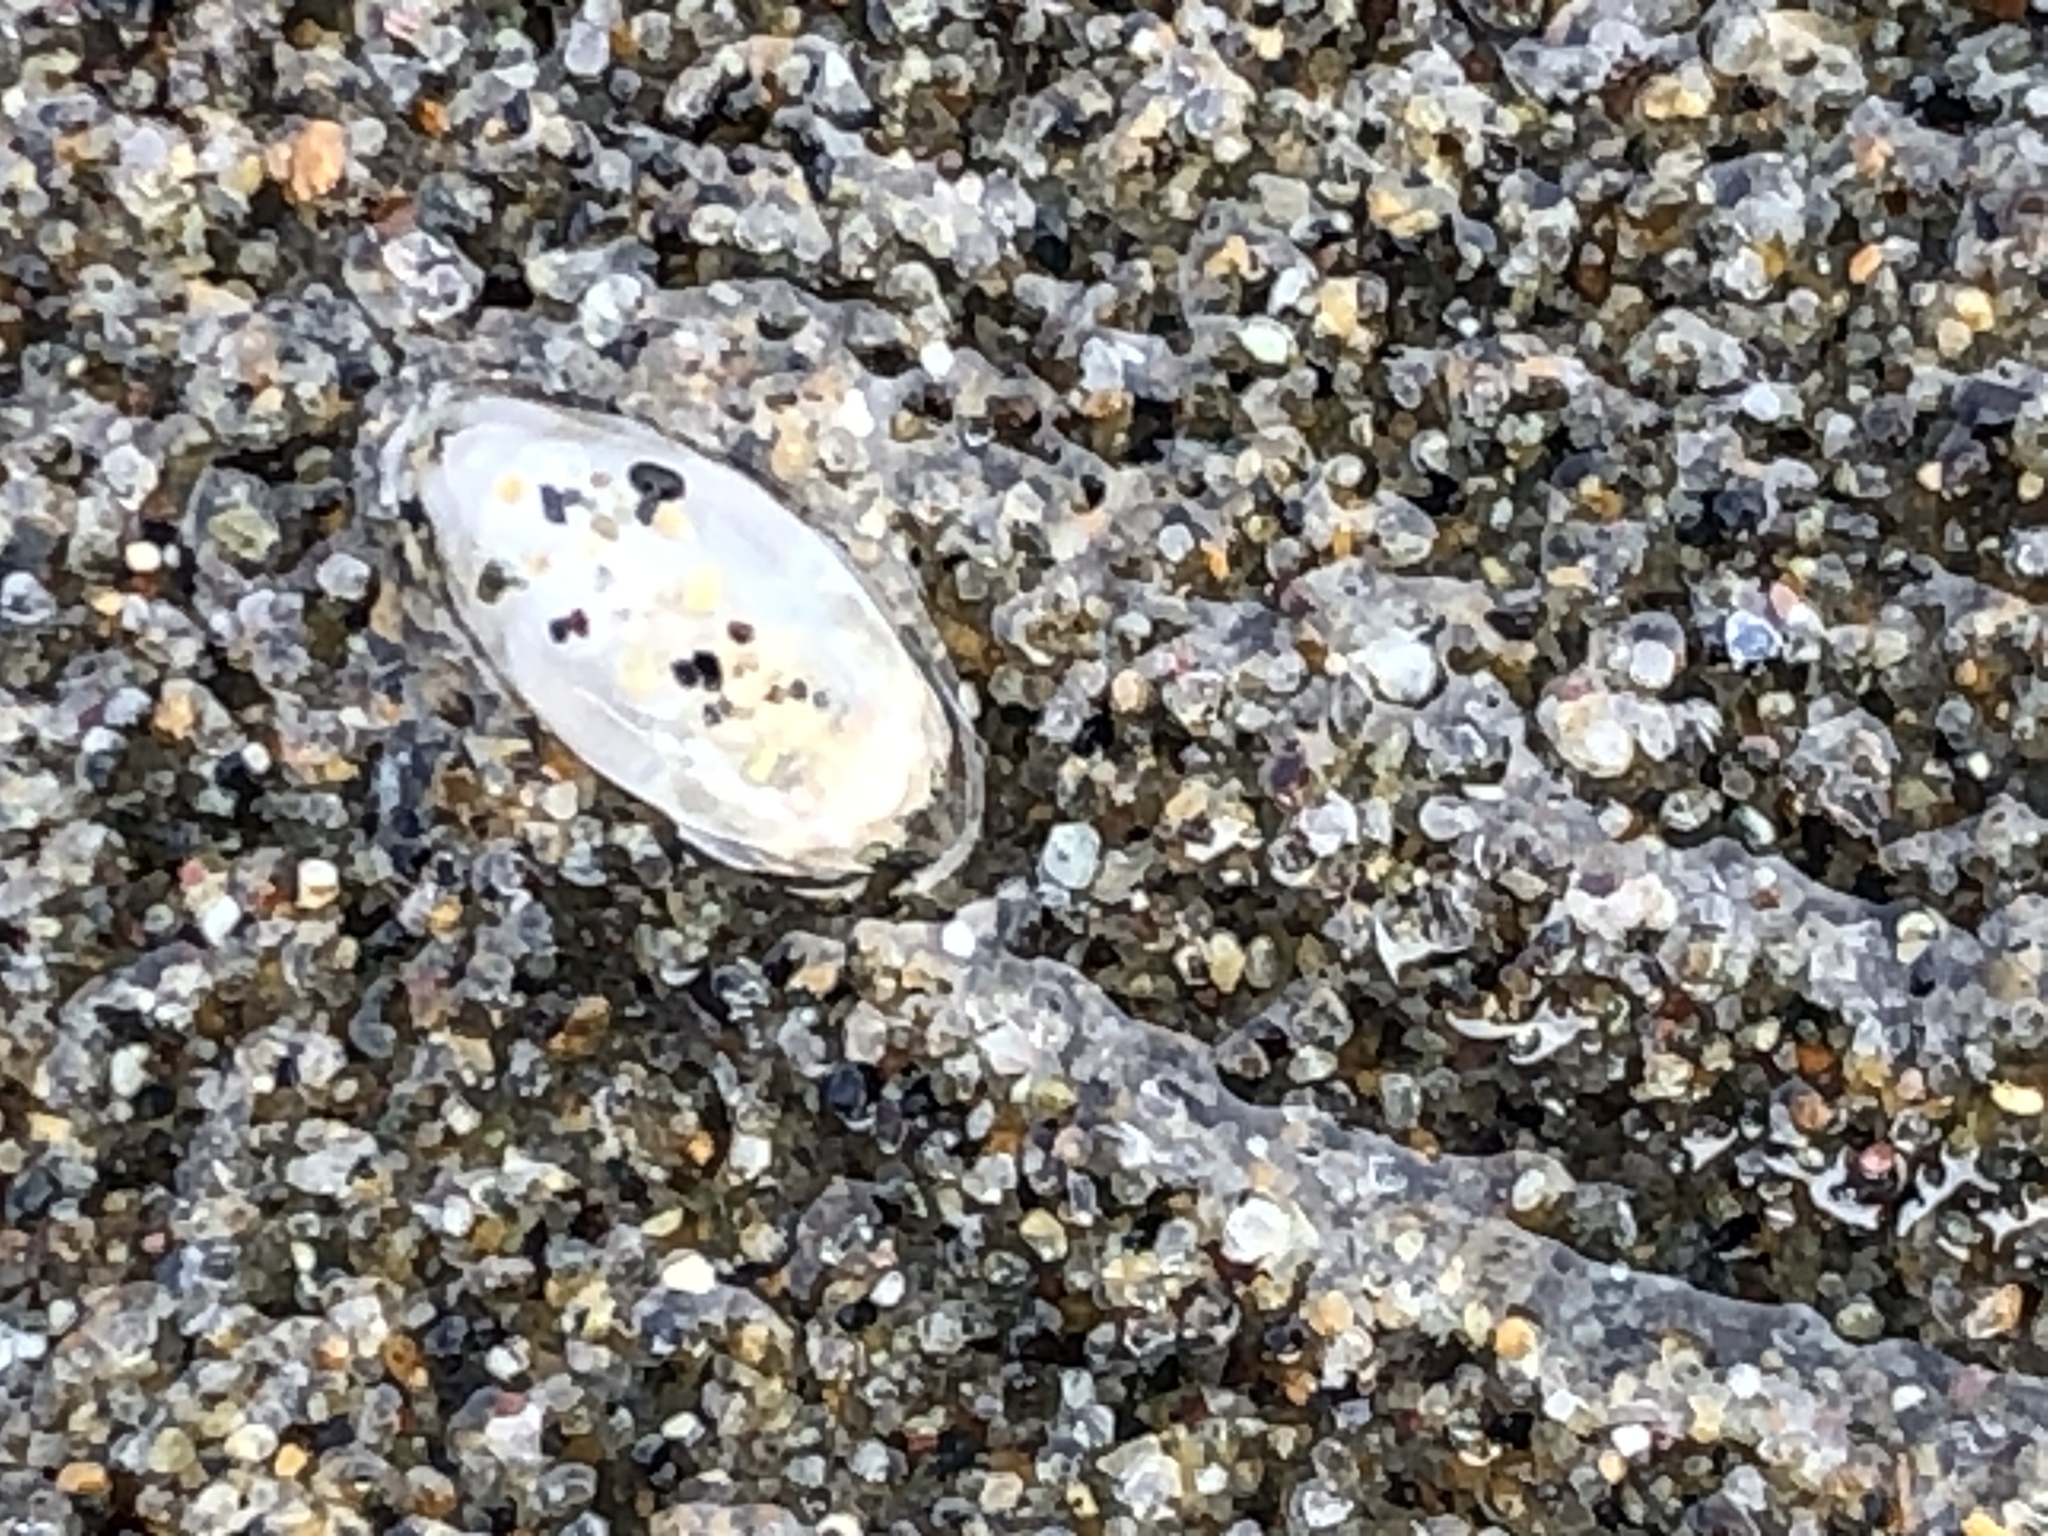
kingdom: Animalia
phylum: Arthropoda
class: Malacostraca
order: Decapoda
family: Hippidae
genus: Emerita
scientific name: Emerita analoga
